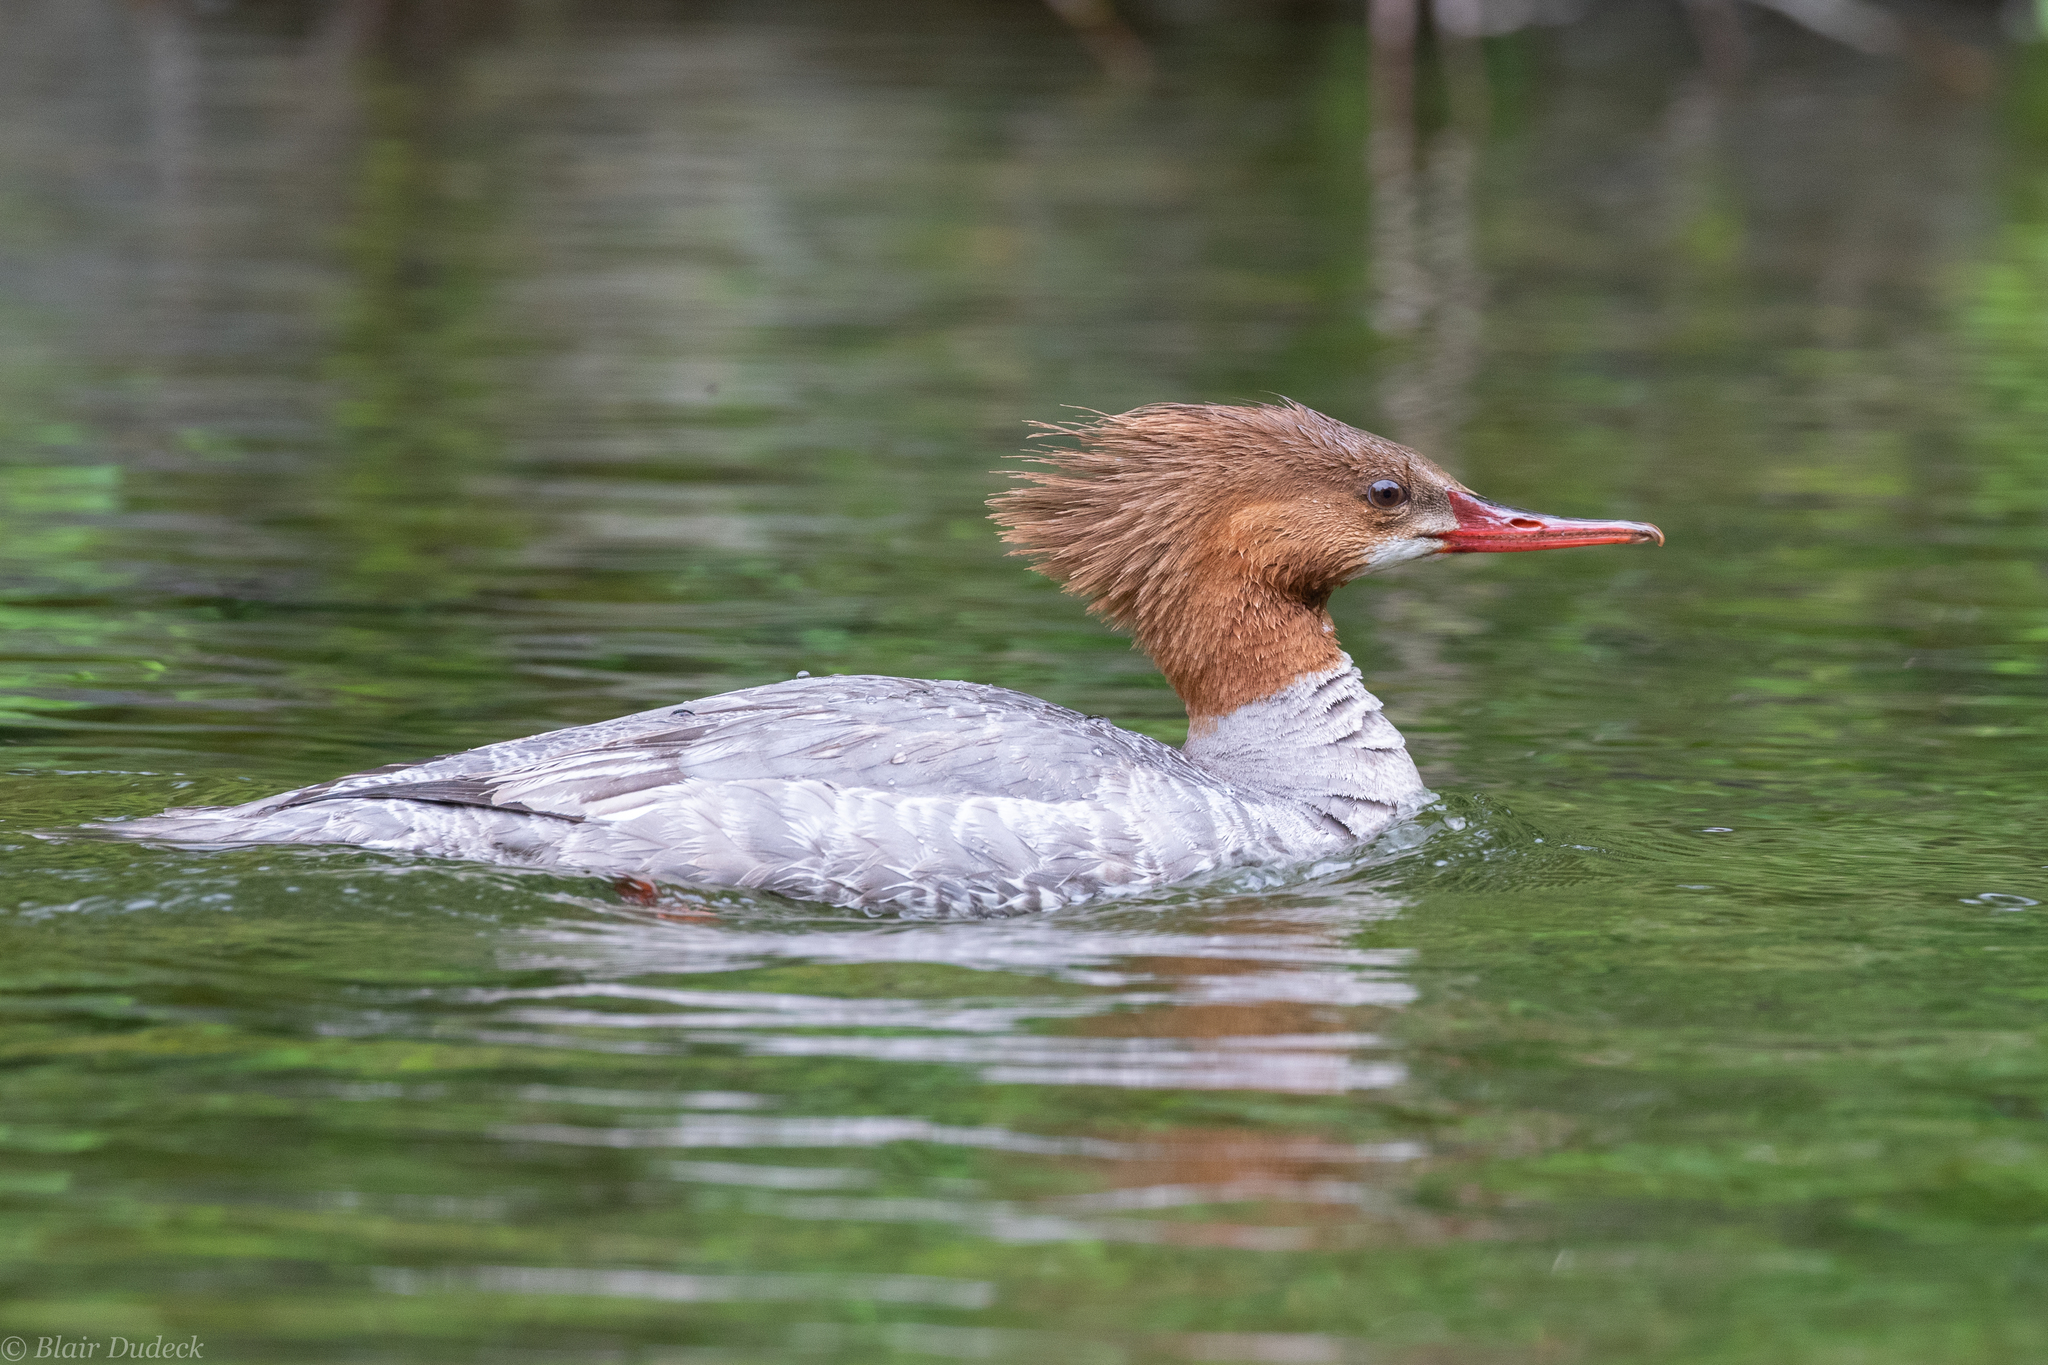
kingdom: Animalia
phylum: Chordata
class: Aves
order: Anseriformes
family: Anatidae
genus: Mergus
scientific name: Mergus merganser
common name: Common merganser
